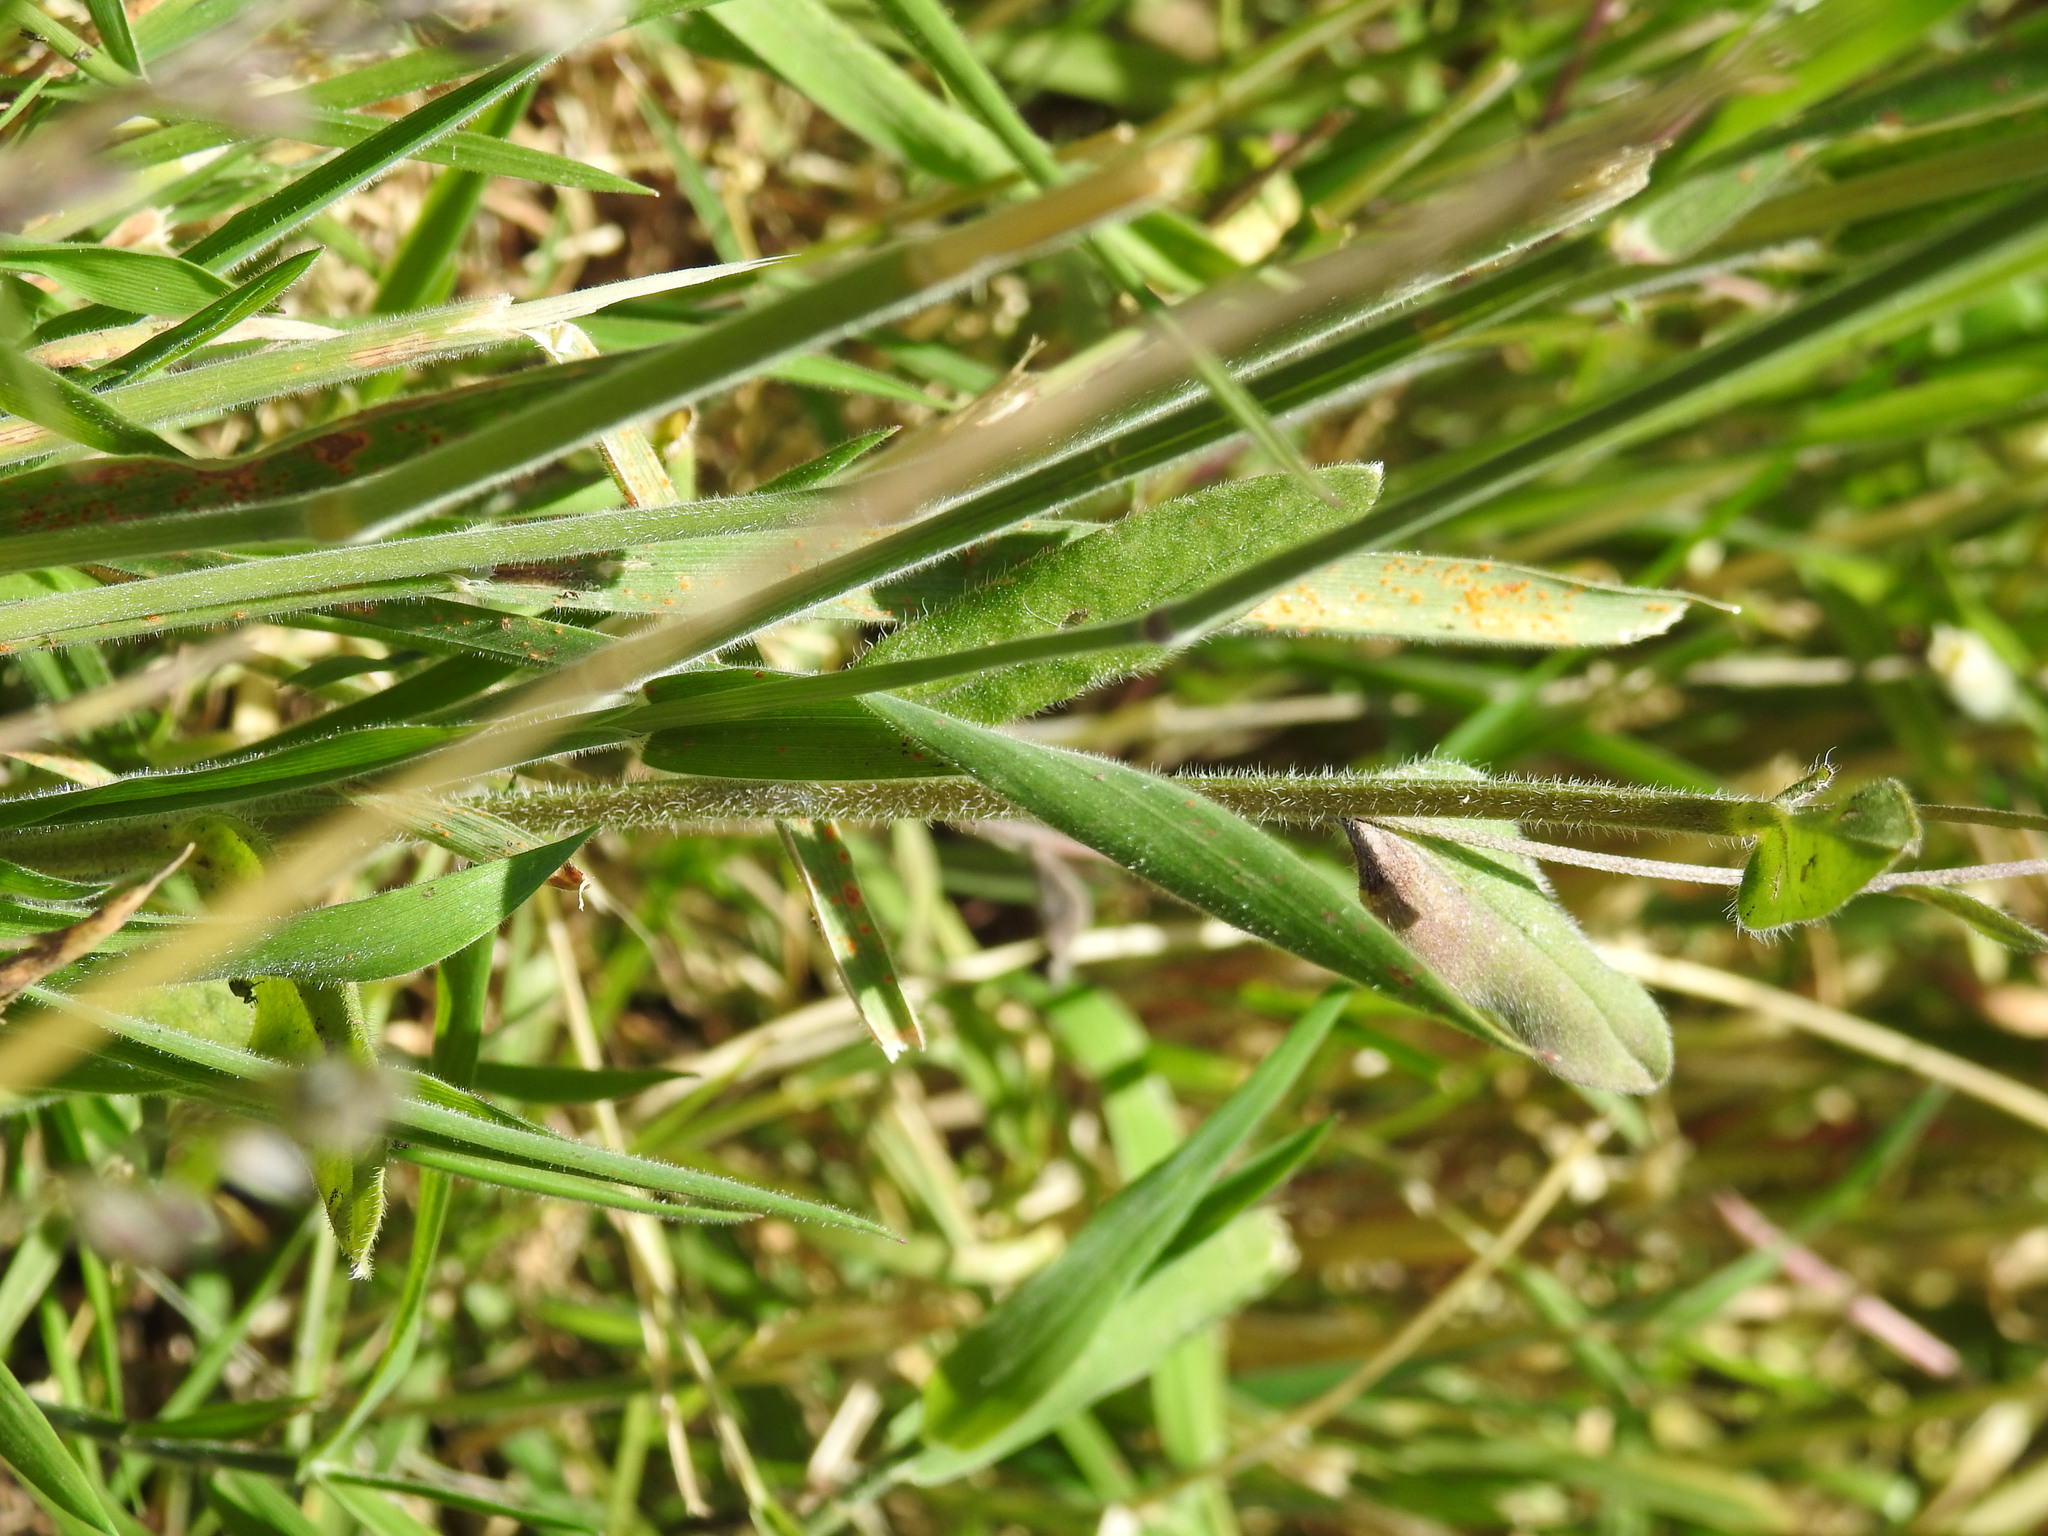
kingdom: Plantae
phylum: Tracheophyta
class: Liliopsida
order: Poales
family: Poaceae
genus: Holcus
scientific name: Holcus lanatus
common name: Yorkshire-fog
